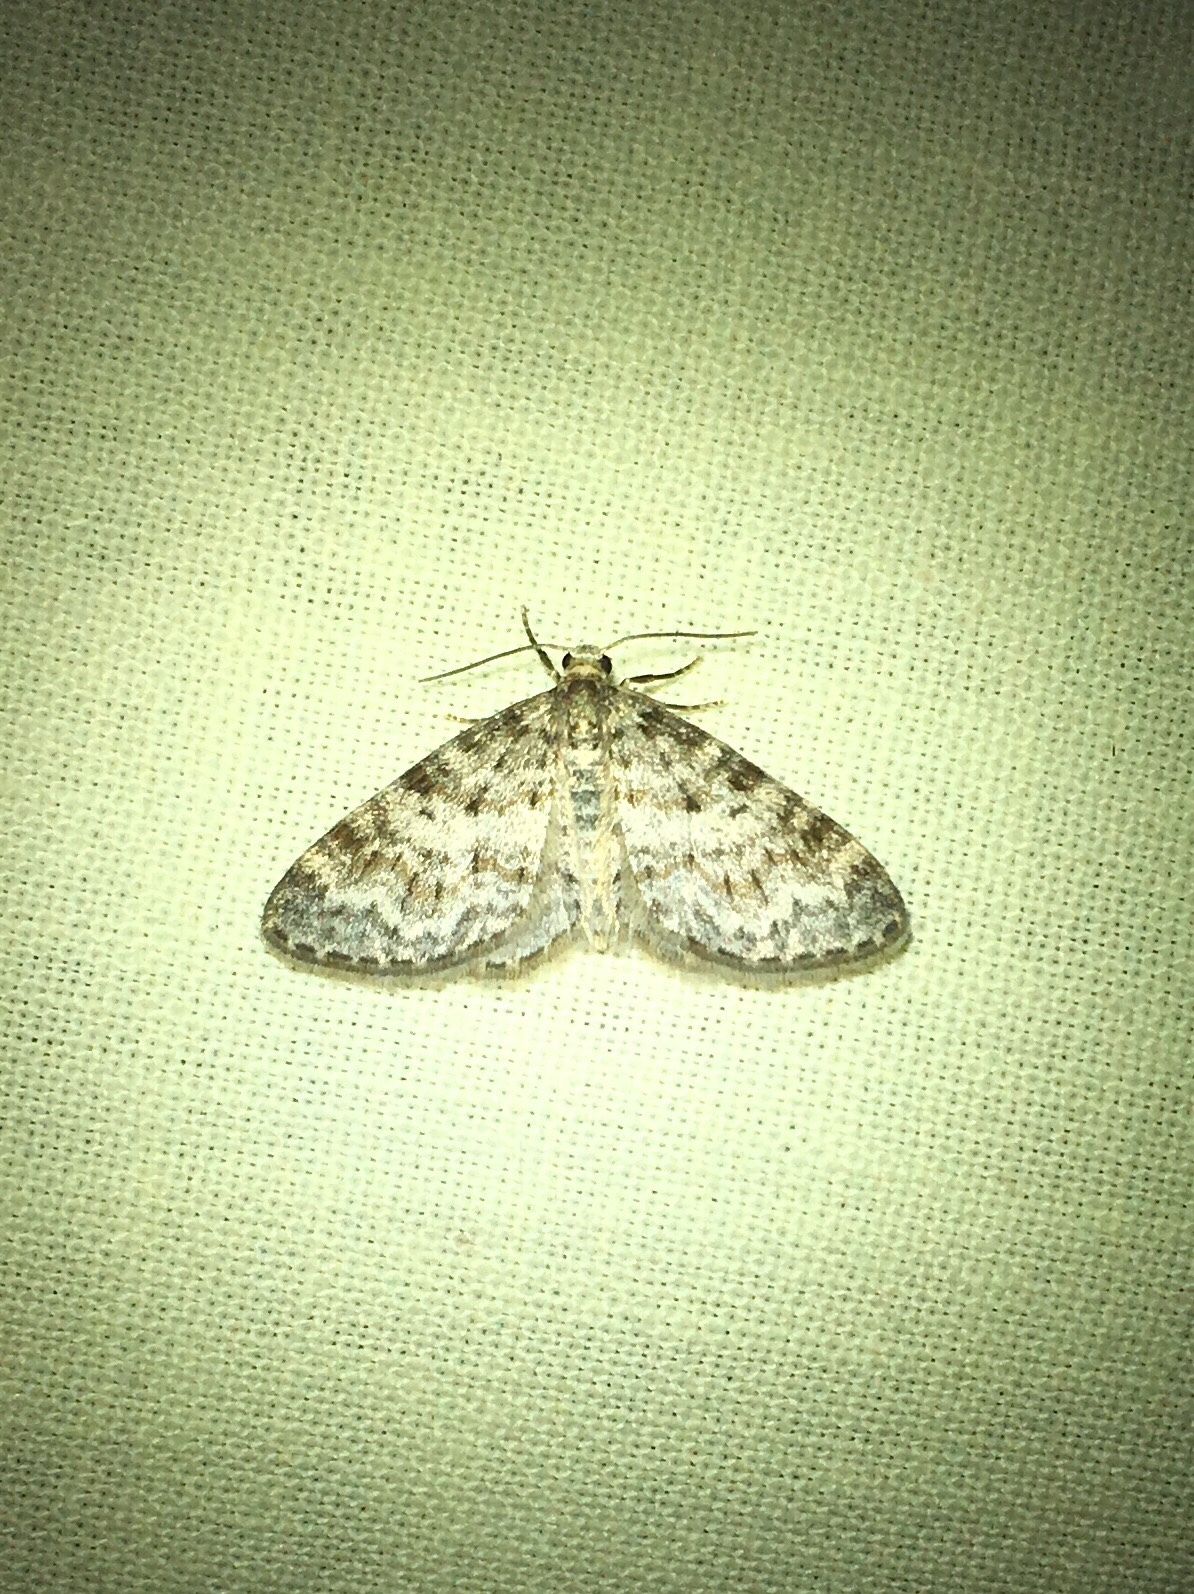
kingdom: Animalia
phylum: Arthropoda
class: Insecta
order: Lepidoptera
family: Geometridae
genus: Hydrelia
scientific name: Hydrelia inornata
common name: Unadorned carpet moth
